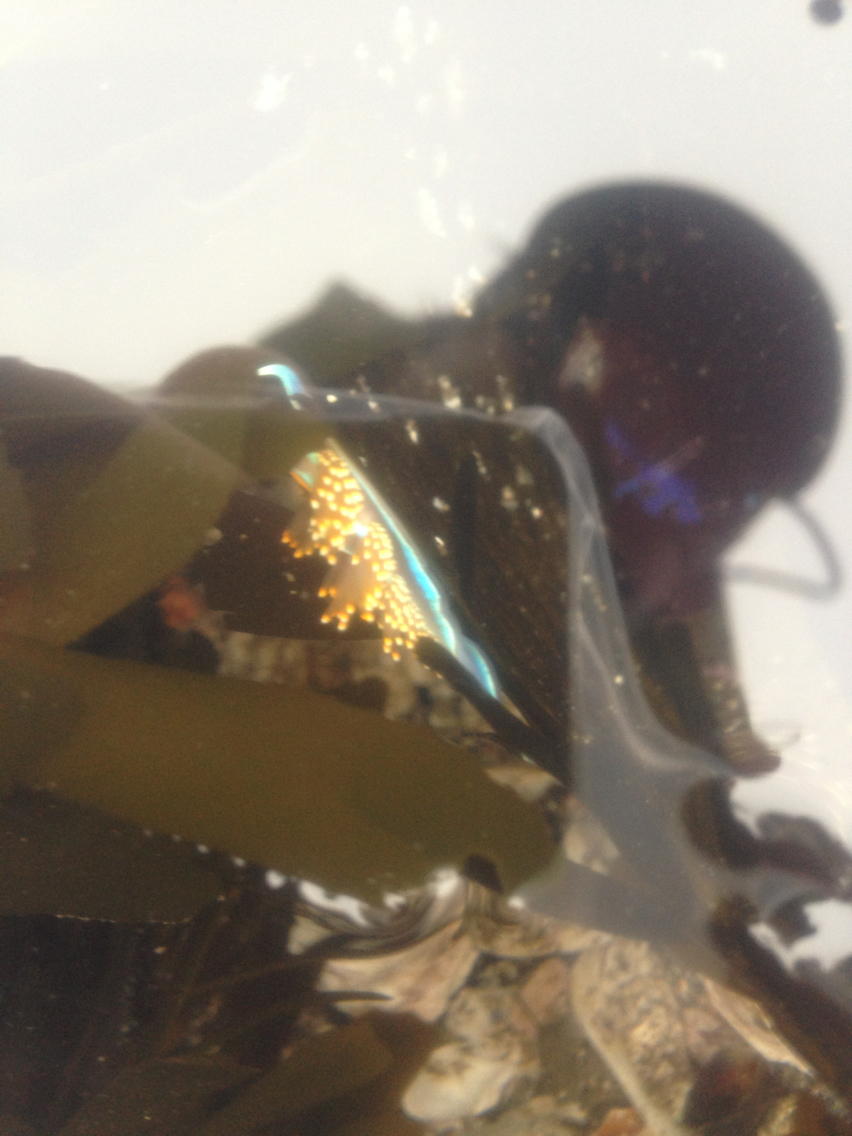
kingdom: Animalia
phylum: Mollusca
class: Gastropoda
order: Nudibranchia
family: Myrrhinidae
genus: Hermissenda
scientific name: Hermissenda opalescens
